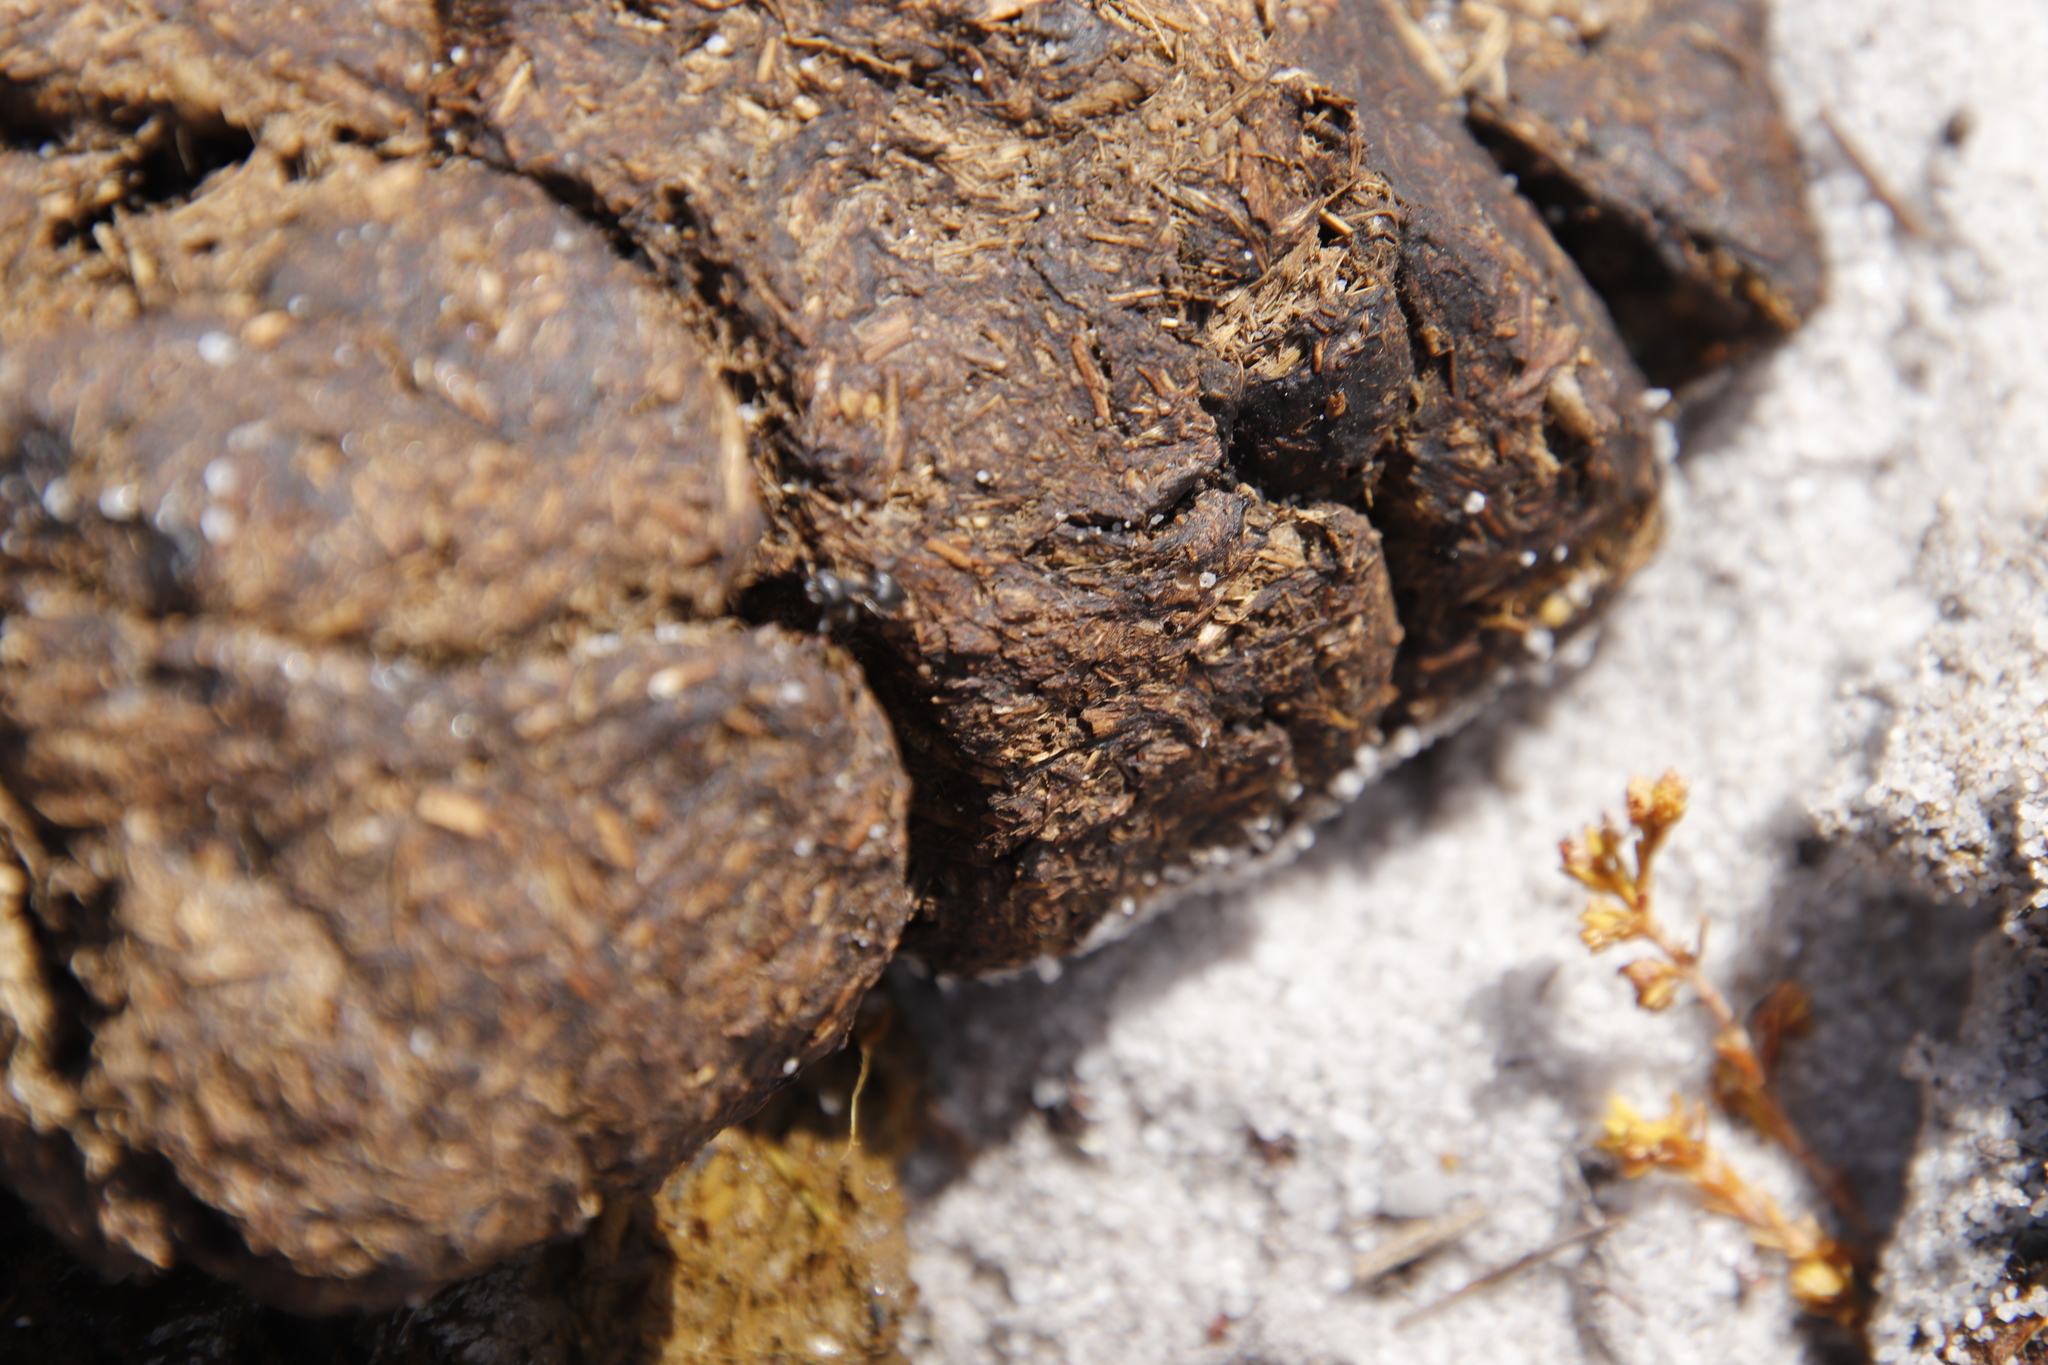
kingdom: Animalia
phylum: Arthropoda
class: Insecta
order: Hymenoptera
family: Formicidae
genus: Crematogaster
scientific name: Crematogaster peringueyi
